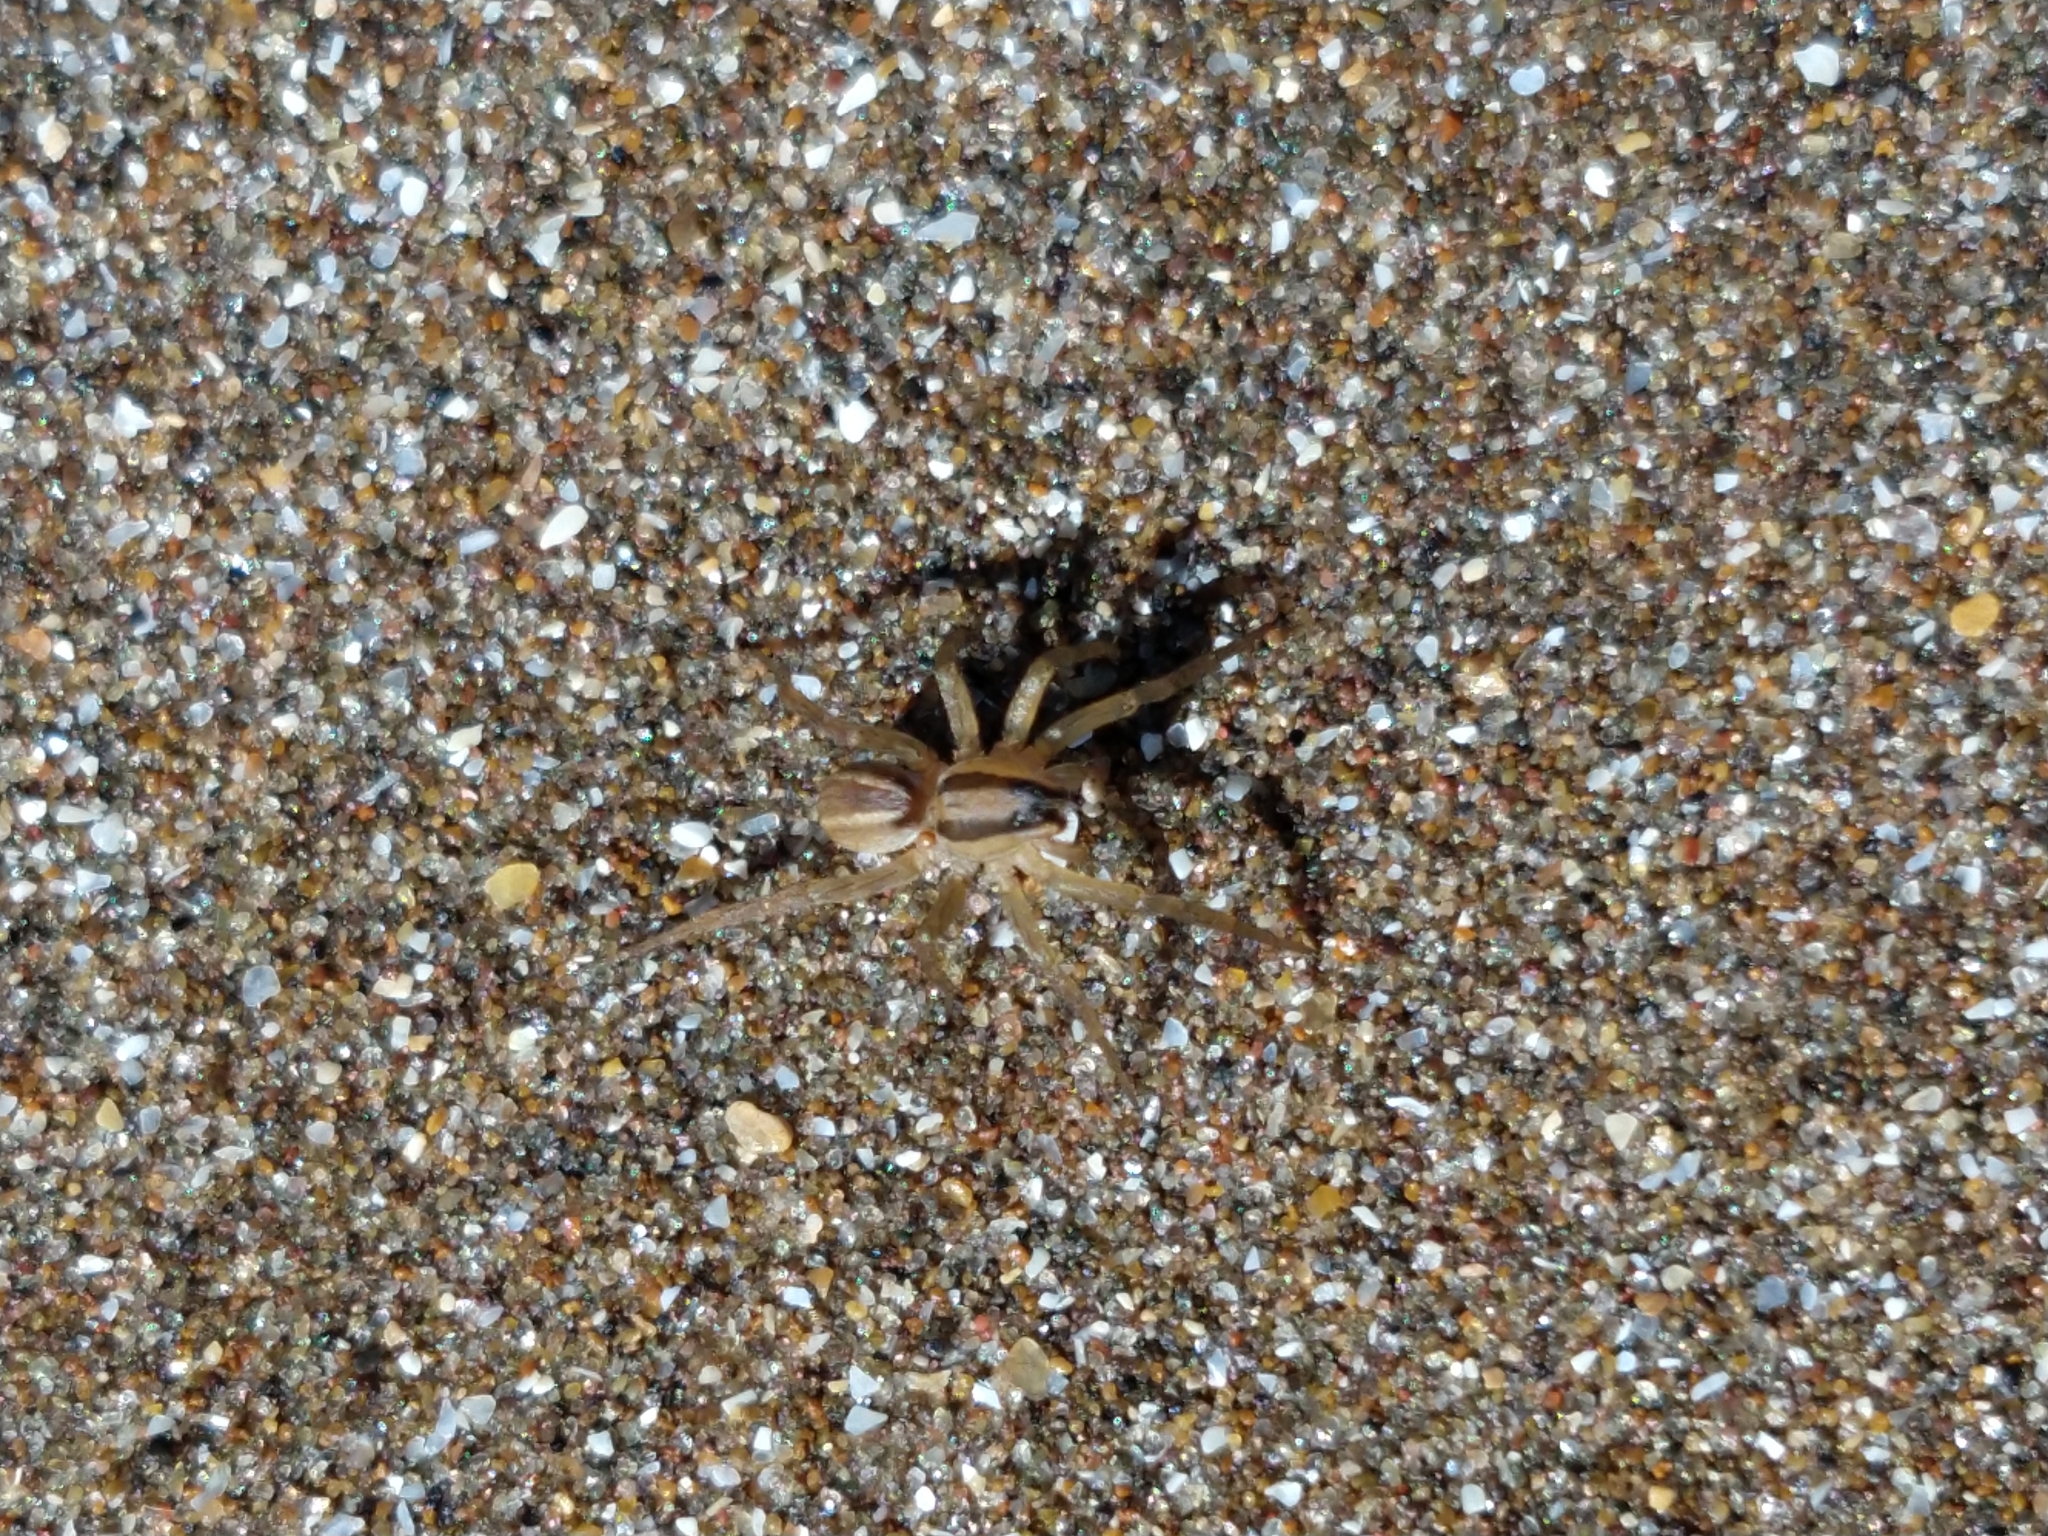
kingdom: Animalia
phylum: Arthropoda
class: Arachnida
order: Araneae
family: Lycosidae
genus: Hogna
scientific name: Hogna bivittata
